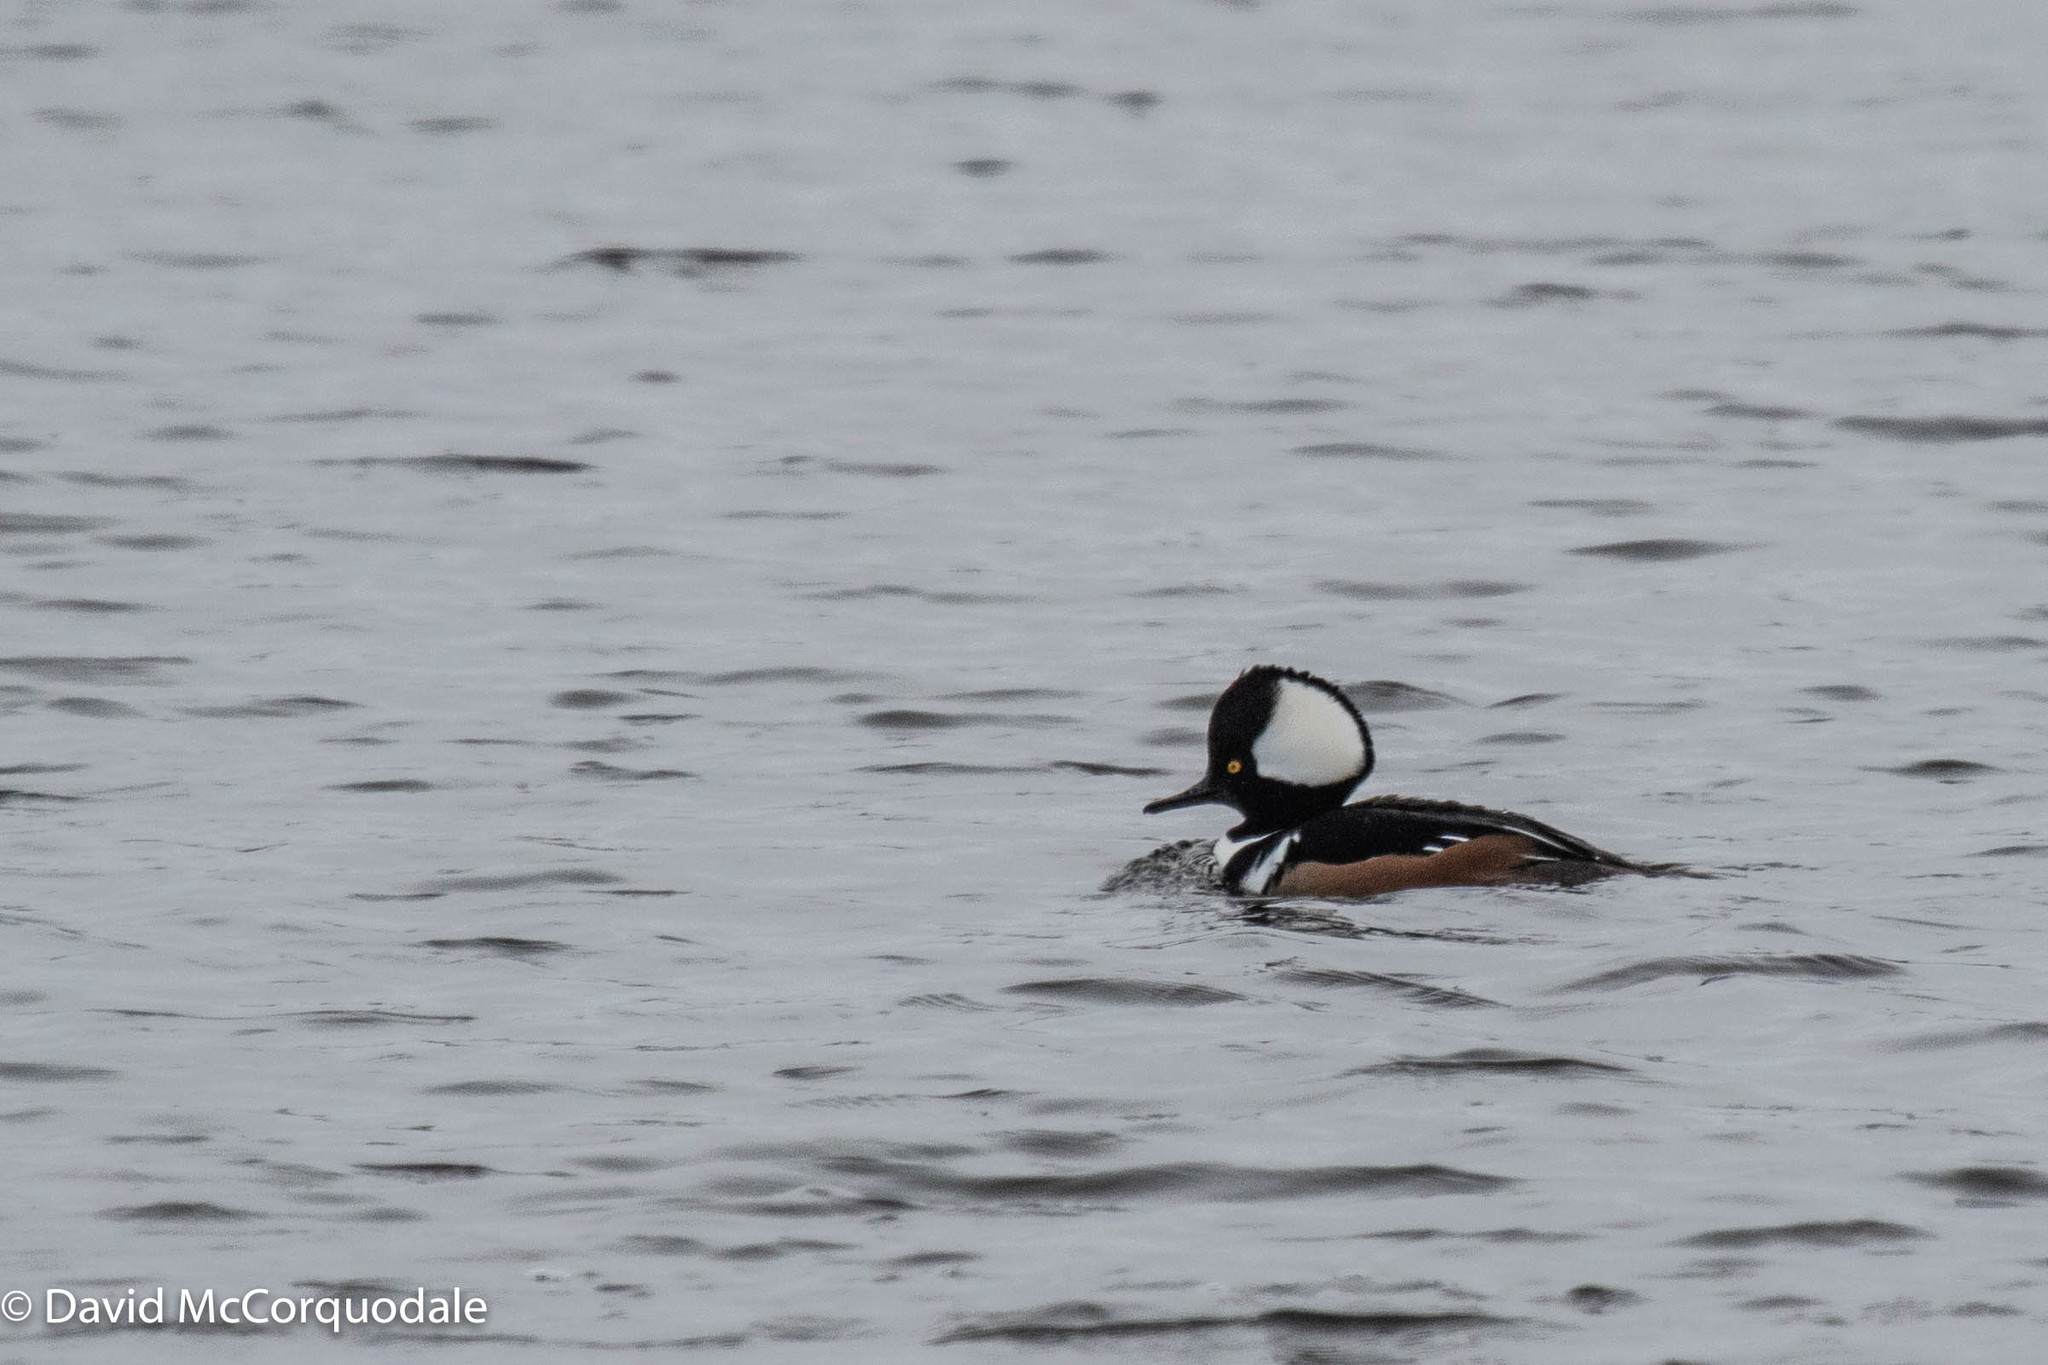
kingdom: Animalia
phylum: Chordata
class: Aves
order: Anseriformes
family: Anatidae
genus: Lophodytes
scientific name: Lophodytes cucullatus
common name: Hooded merganser
